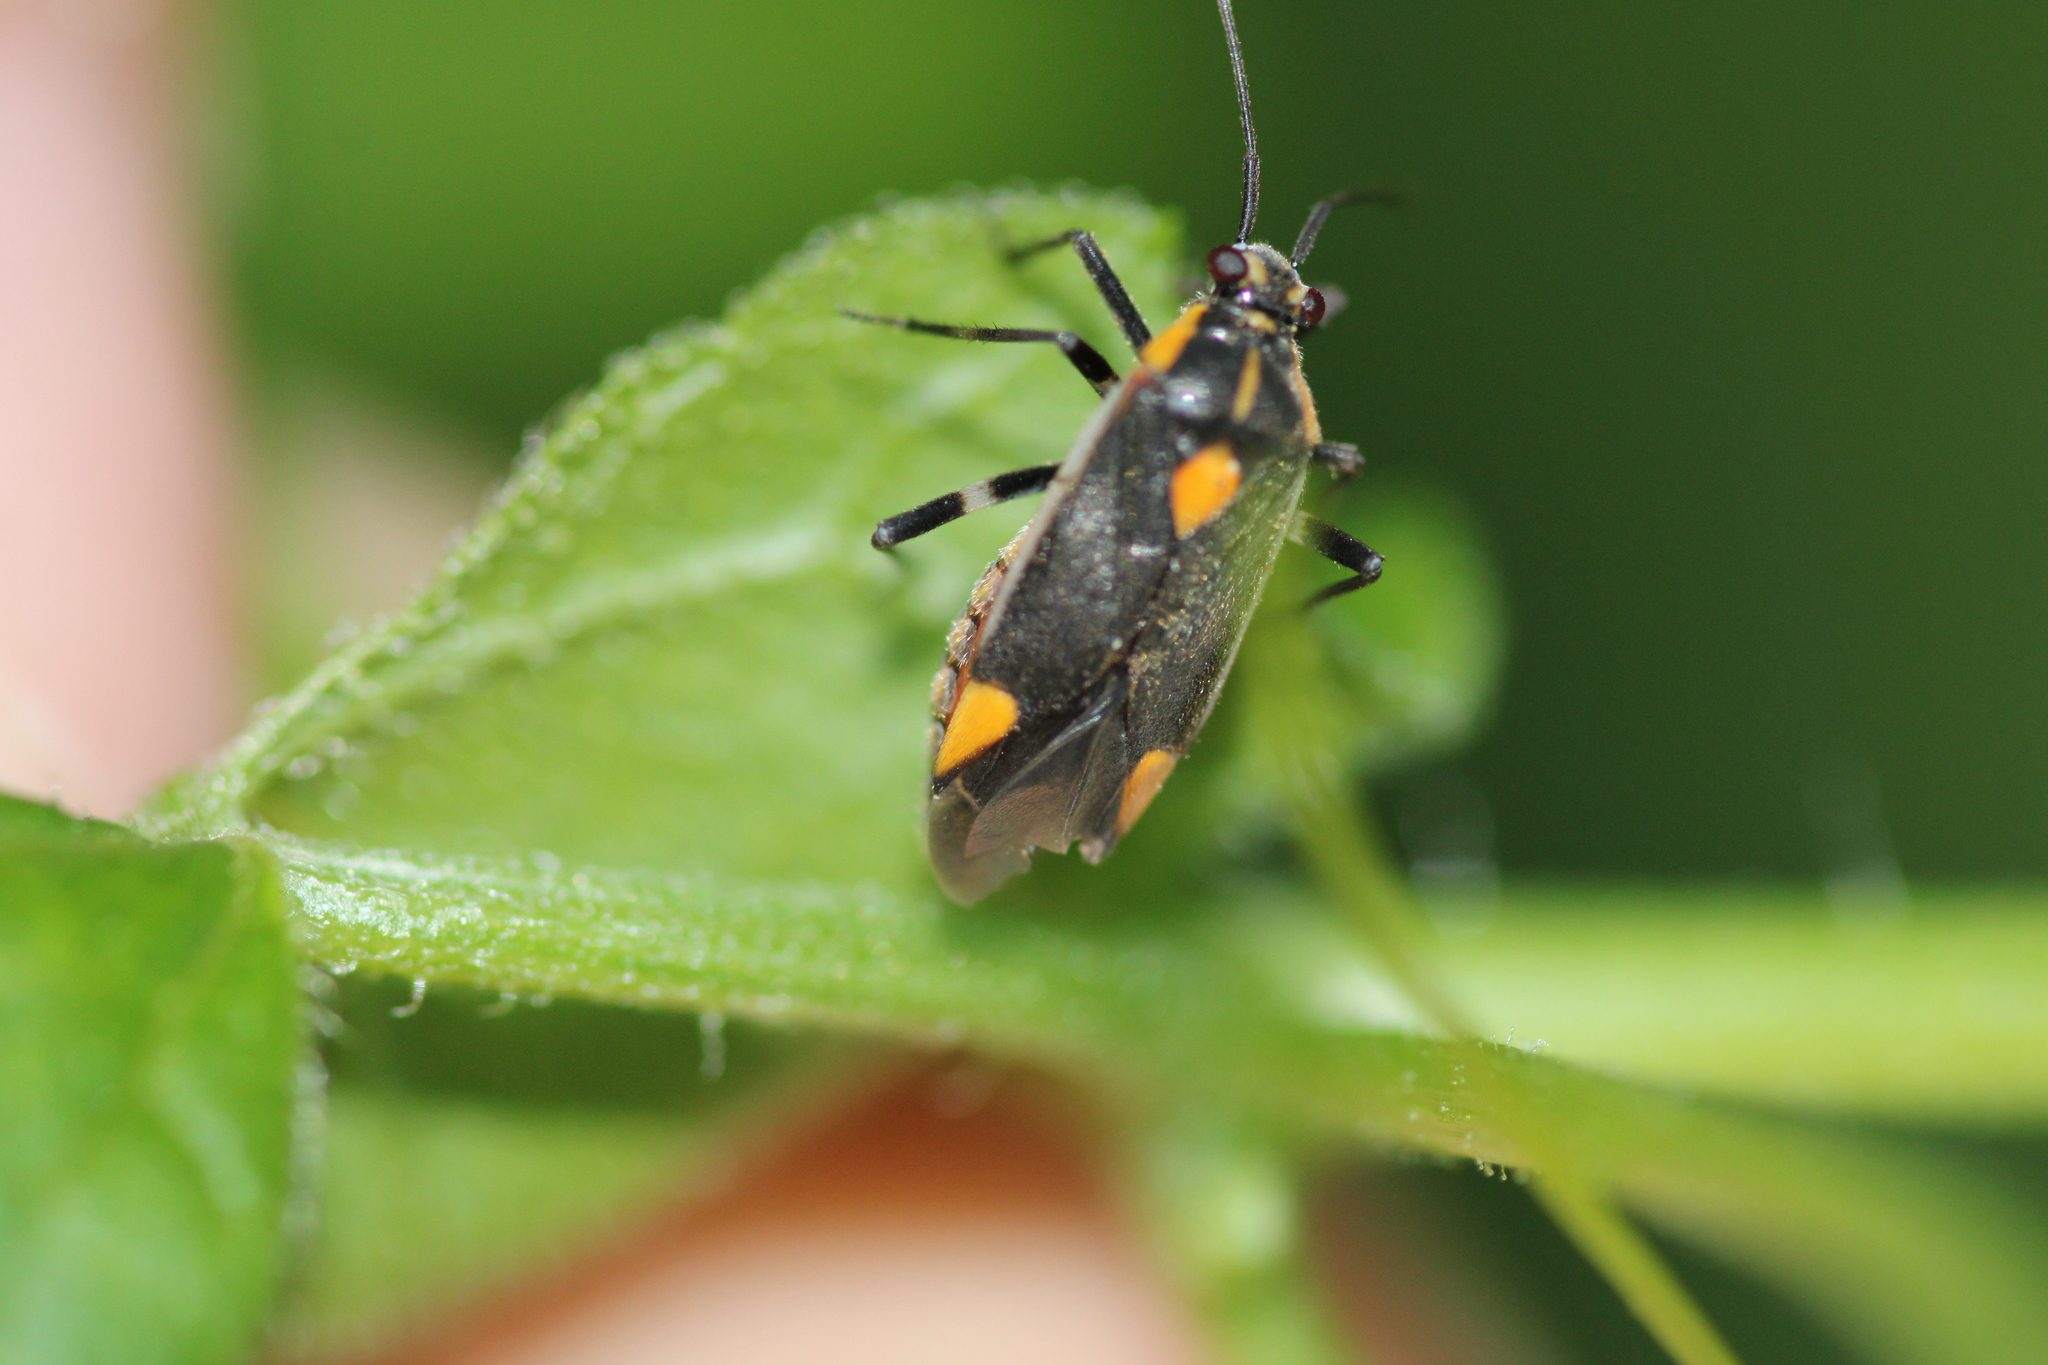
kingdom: Animalia
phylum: Arthropoda
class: Insecta
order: Hemiptera
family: Miridae
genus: Capsodes
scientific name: Capsodes flavomarginatus
